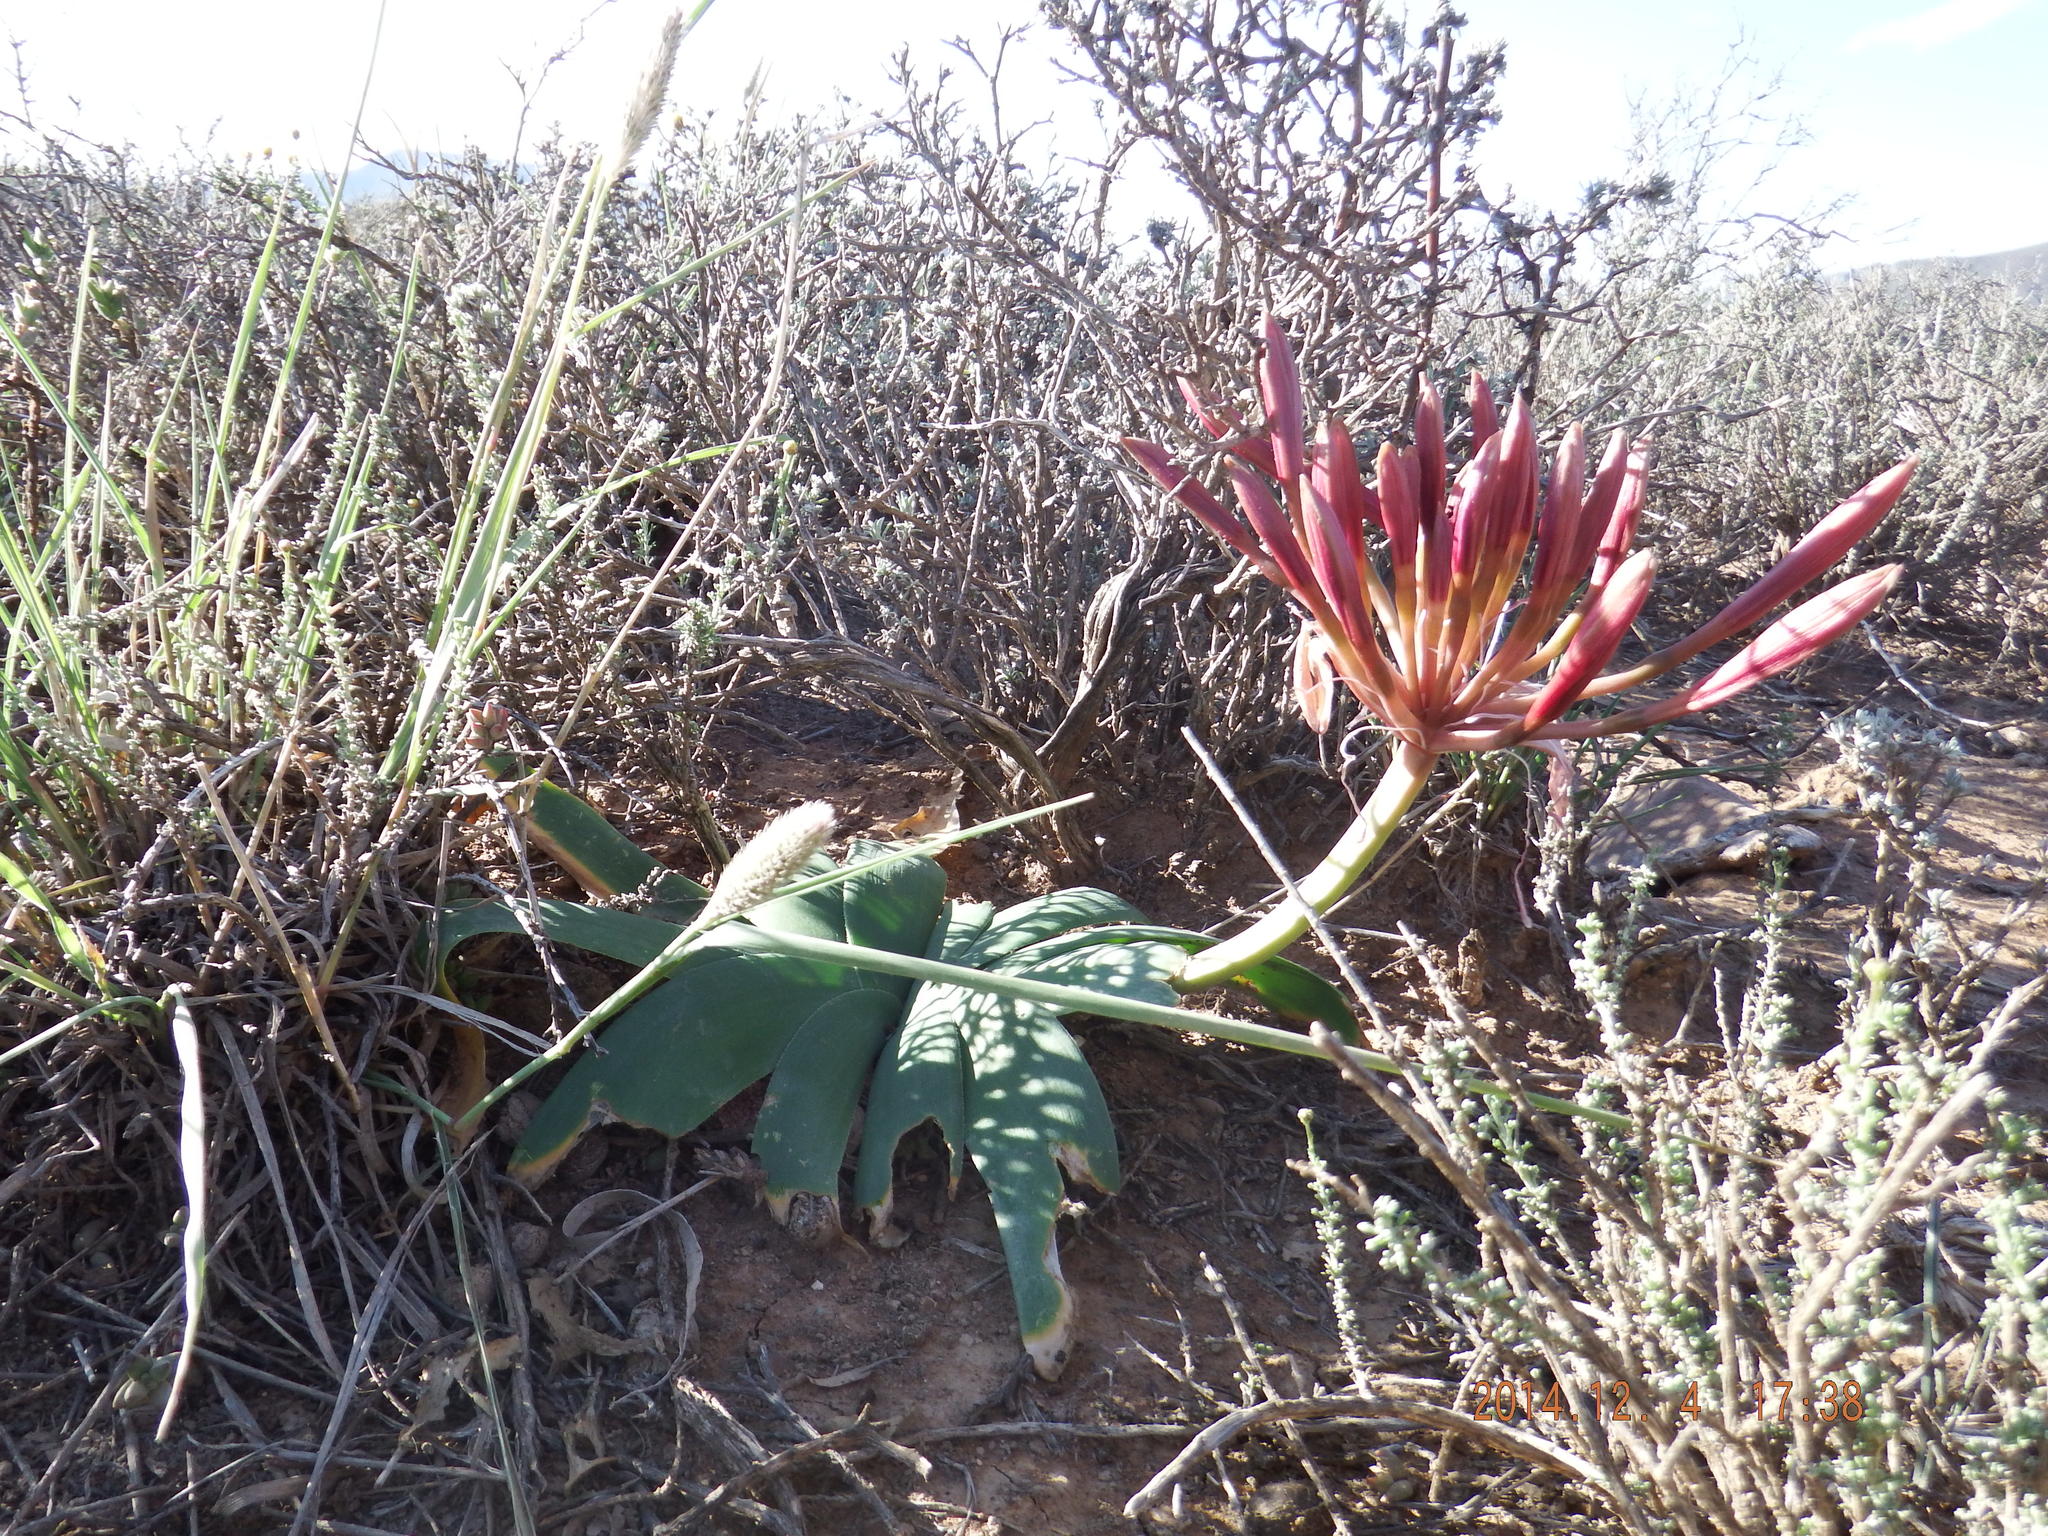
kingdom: Plantae
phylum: Tracheophyta
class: Liliopsida
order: Asparagales
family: Amaryllidaceae
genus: Ammocharis
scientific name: Ammocharis coranica
